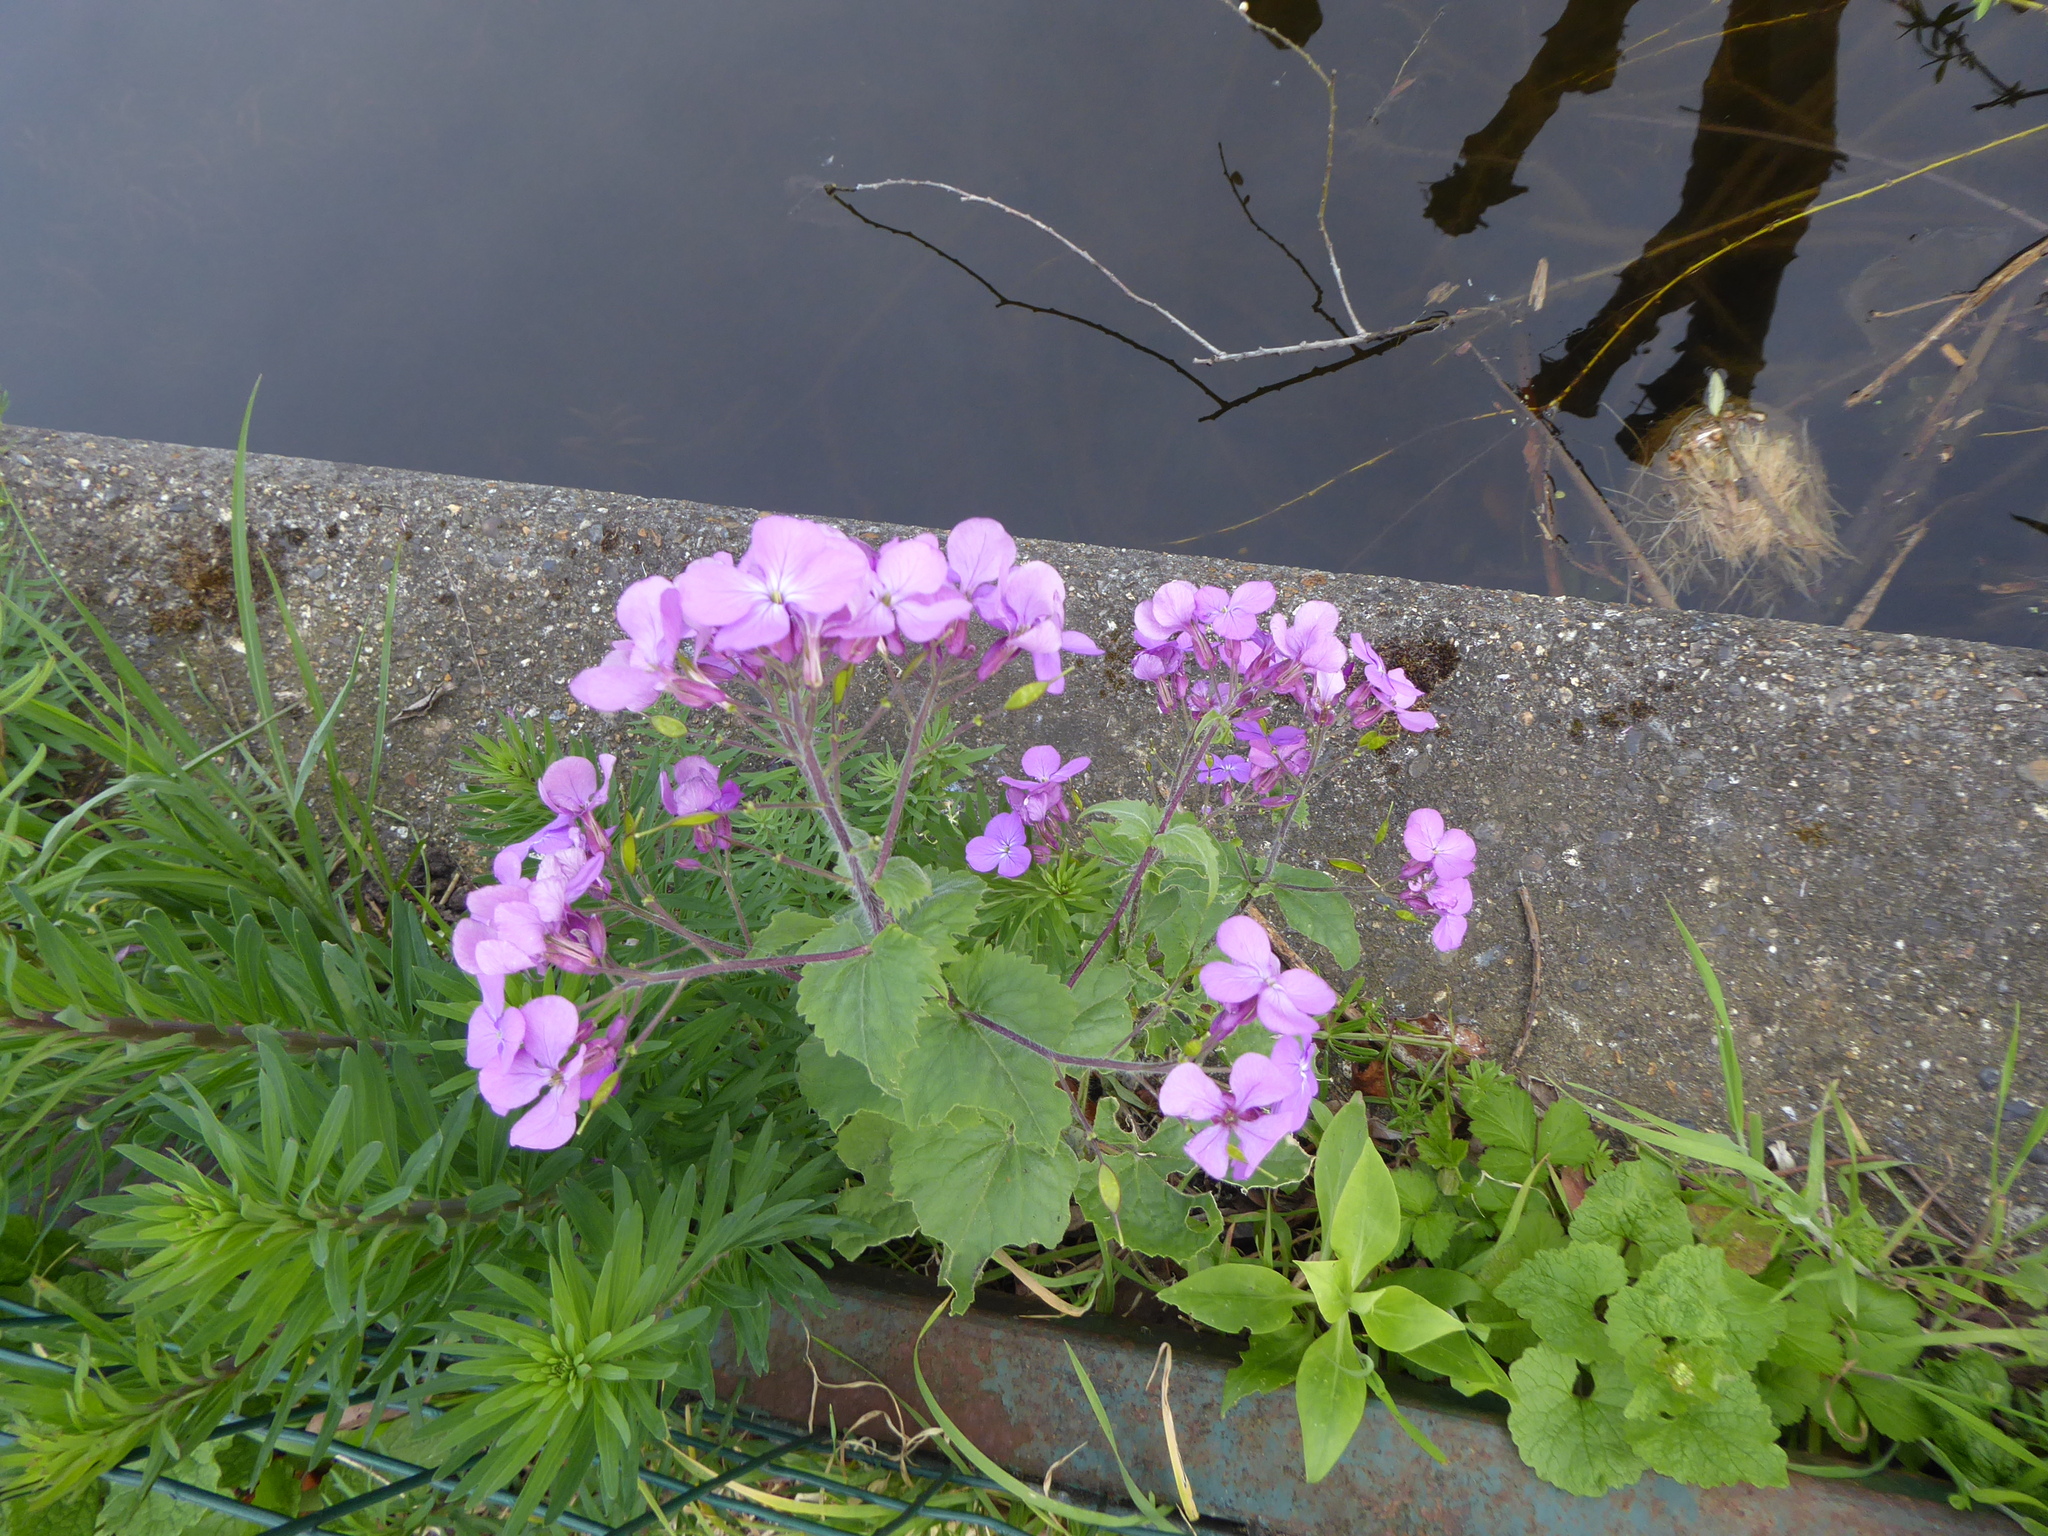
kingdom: Plantae
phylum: Tracheophyta
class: Magnoliopsida
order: Brassicales
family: Brassicaceae
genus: Lunaria
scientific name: Lunaria annua
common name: Honesty
